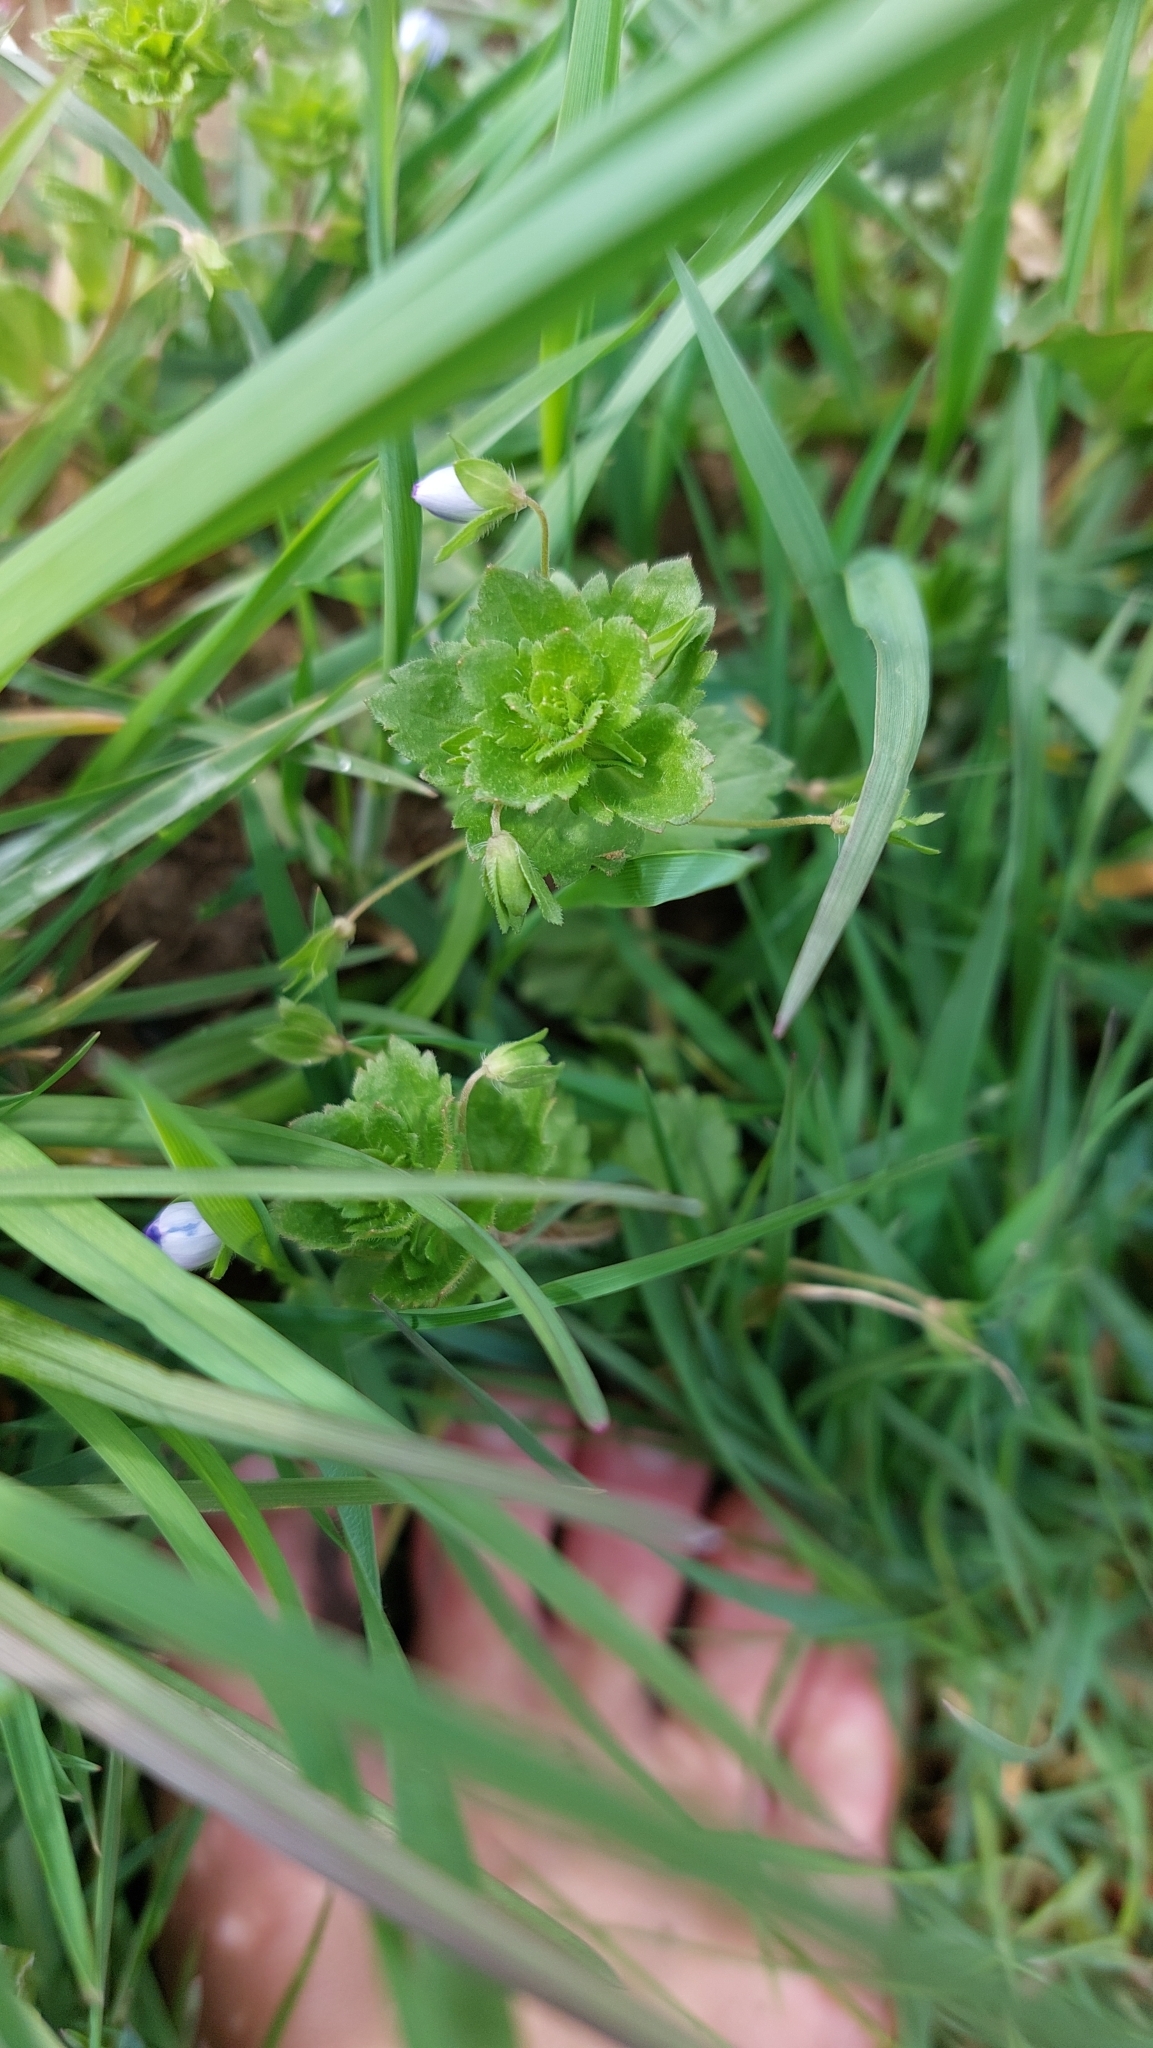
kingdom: Plantae
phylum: Tracheophyta
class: Magnoliopsida
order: Lamiales
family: Plantaginaceae
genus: Veronica
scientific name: Veronica persica
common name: Common field-speedwell
